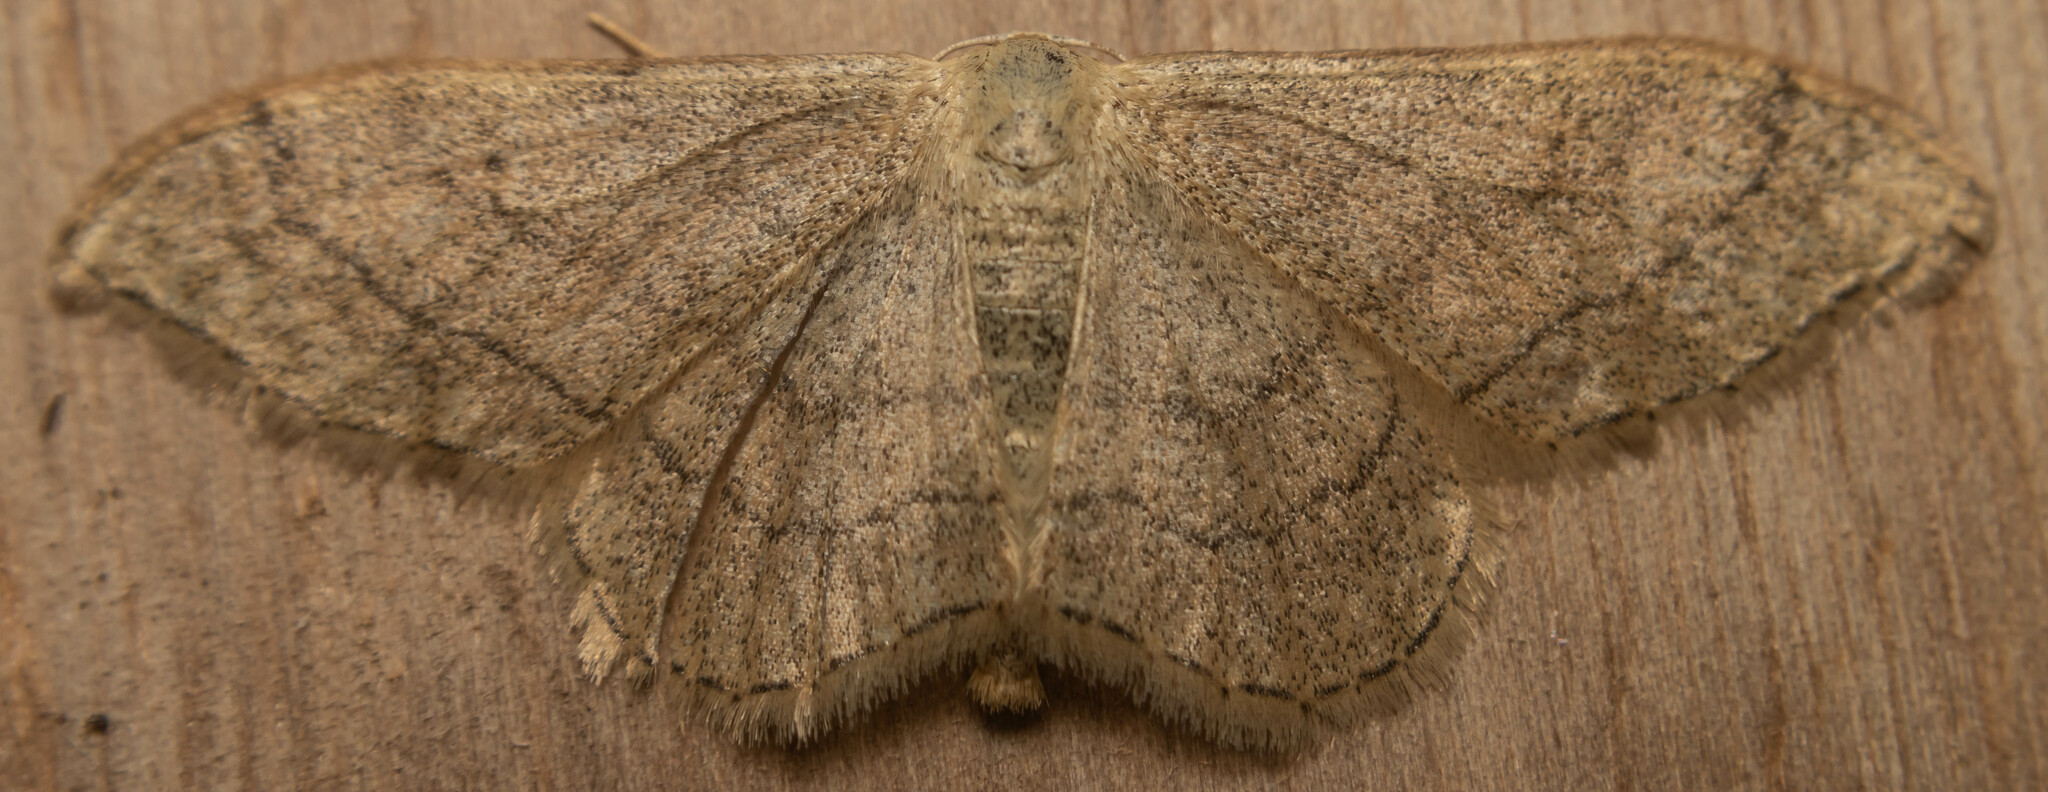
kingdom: Animalia
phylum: Arthropoda
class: Insecta
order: Lepidoptera
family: Geometridae
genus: Idaea
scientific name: Idaea aversata
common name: Riband wave
